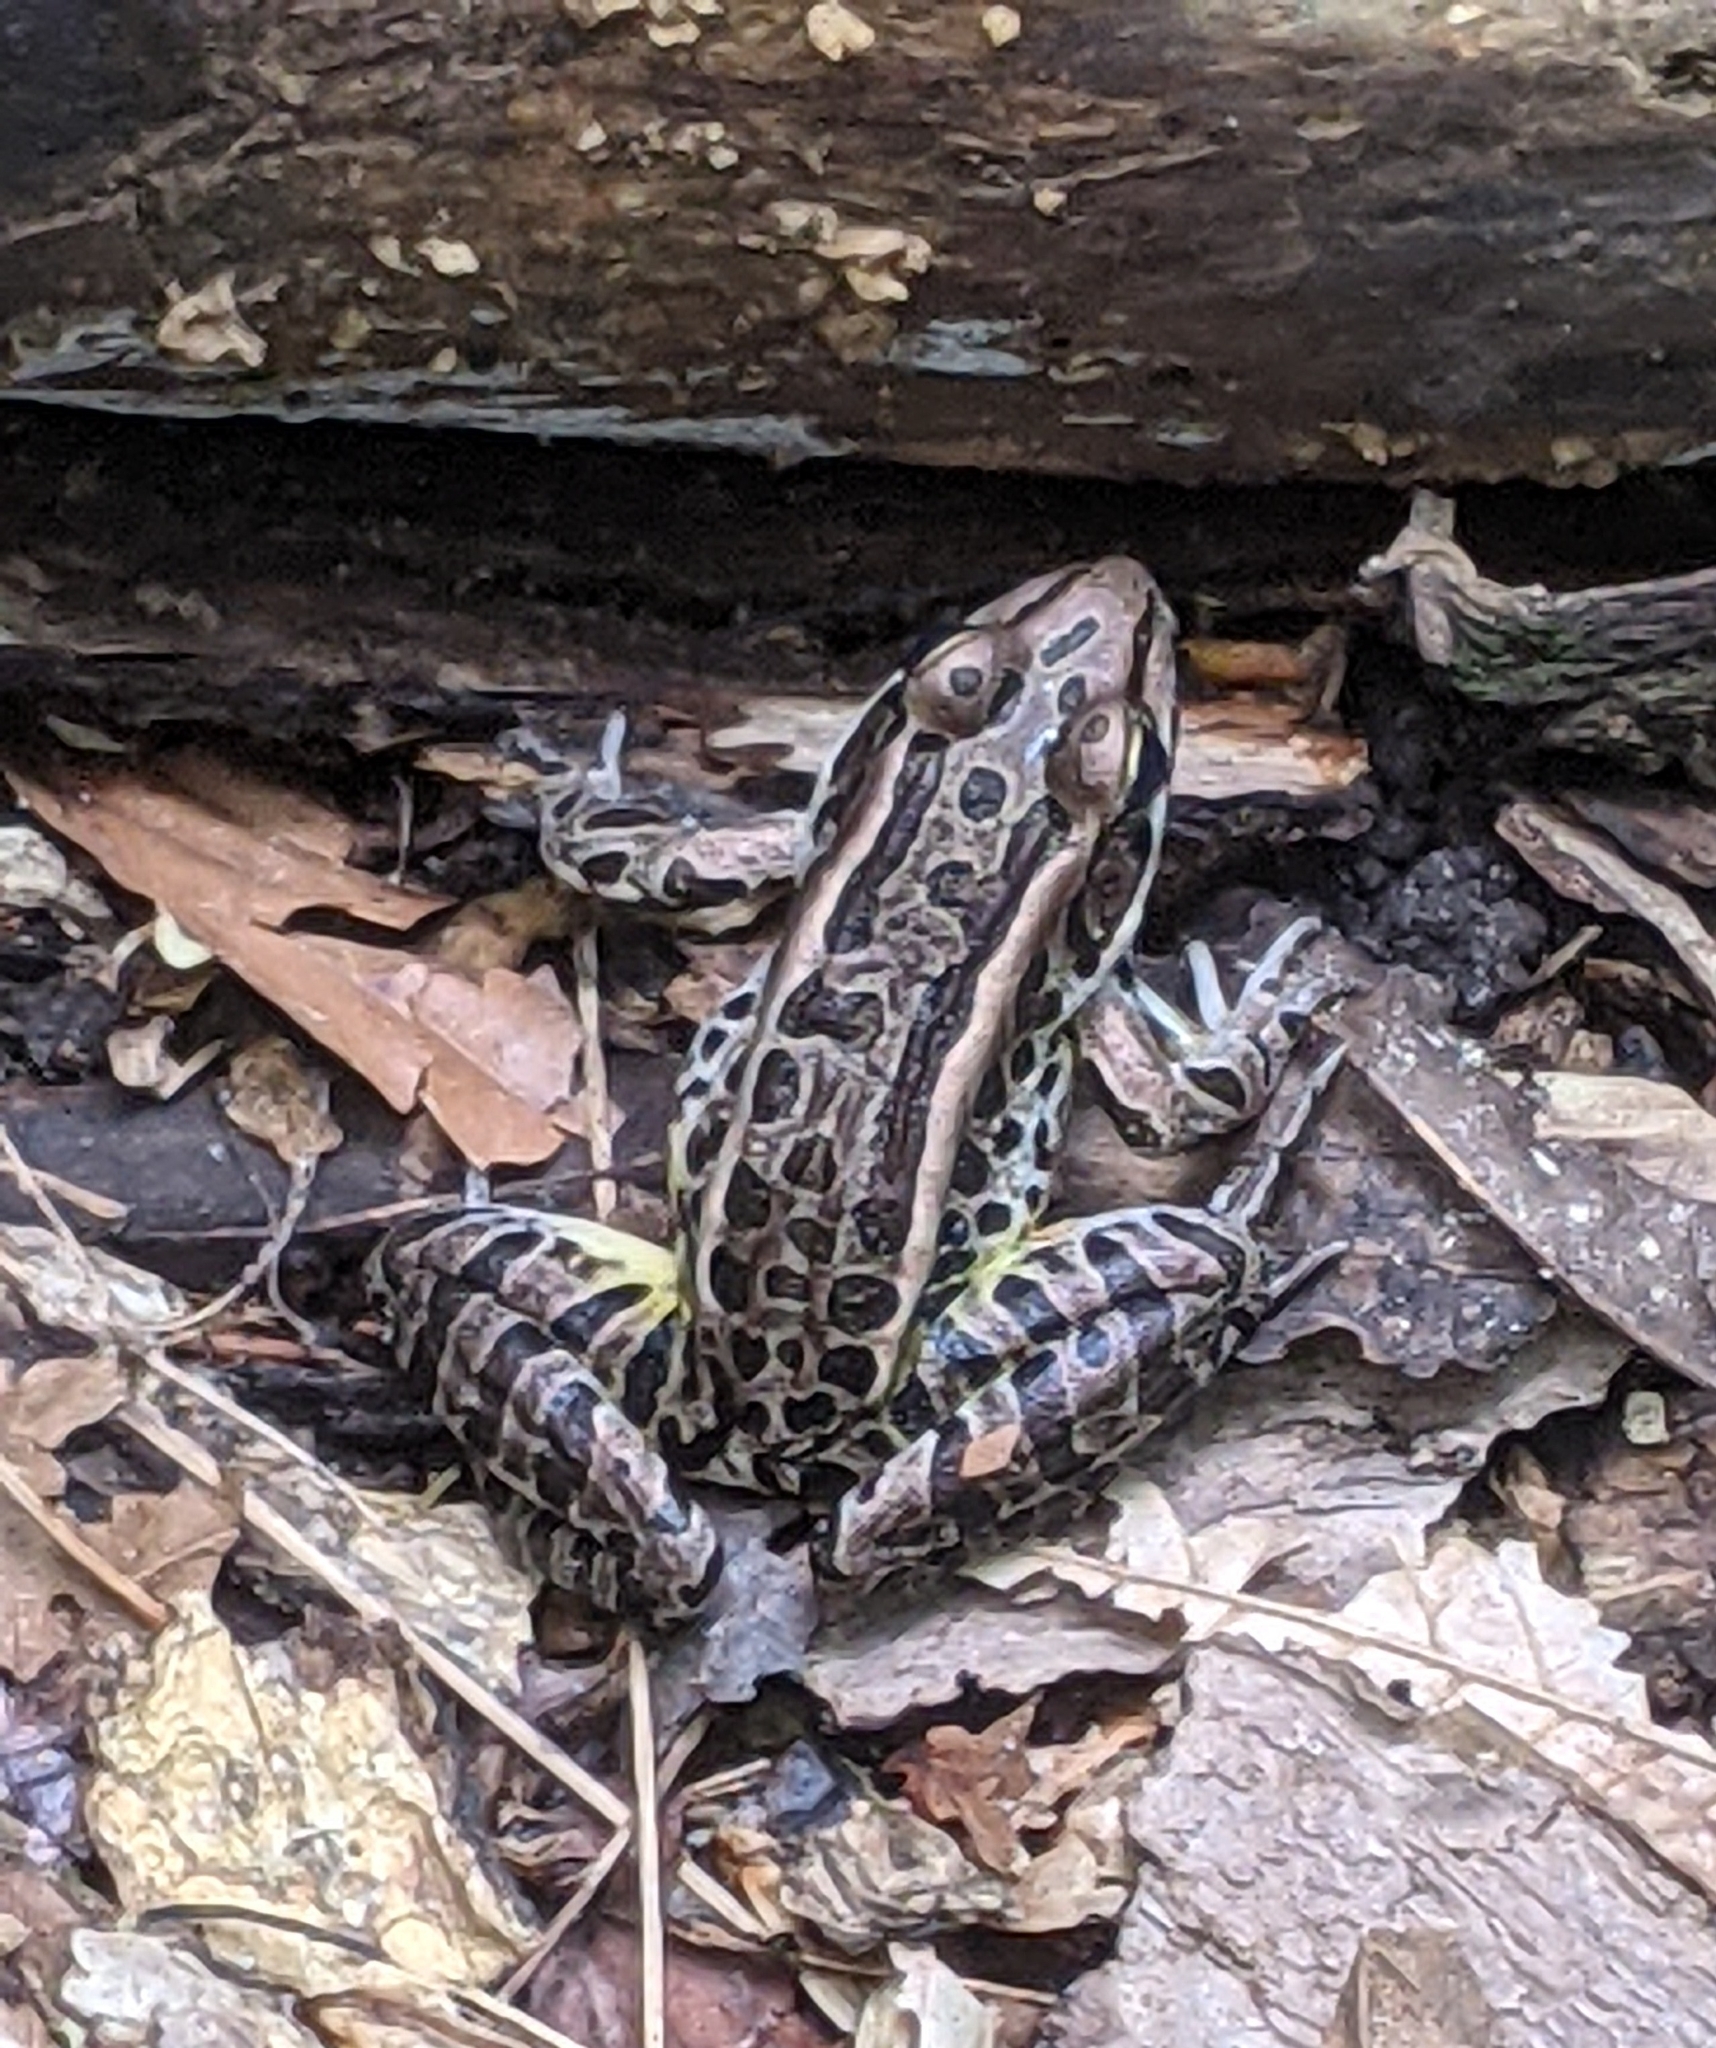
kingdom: Animalia
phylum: Chordata
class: Amphibia
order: Anura
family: Ranidae
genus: Lithobates
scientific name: Lithobates palustris
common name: Pickerel frog
